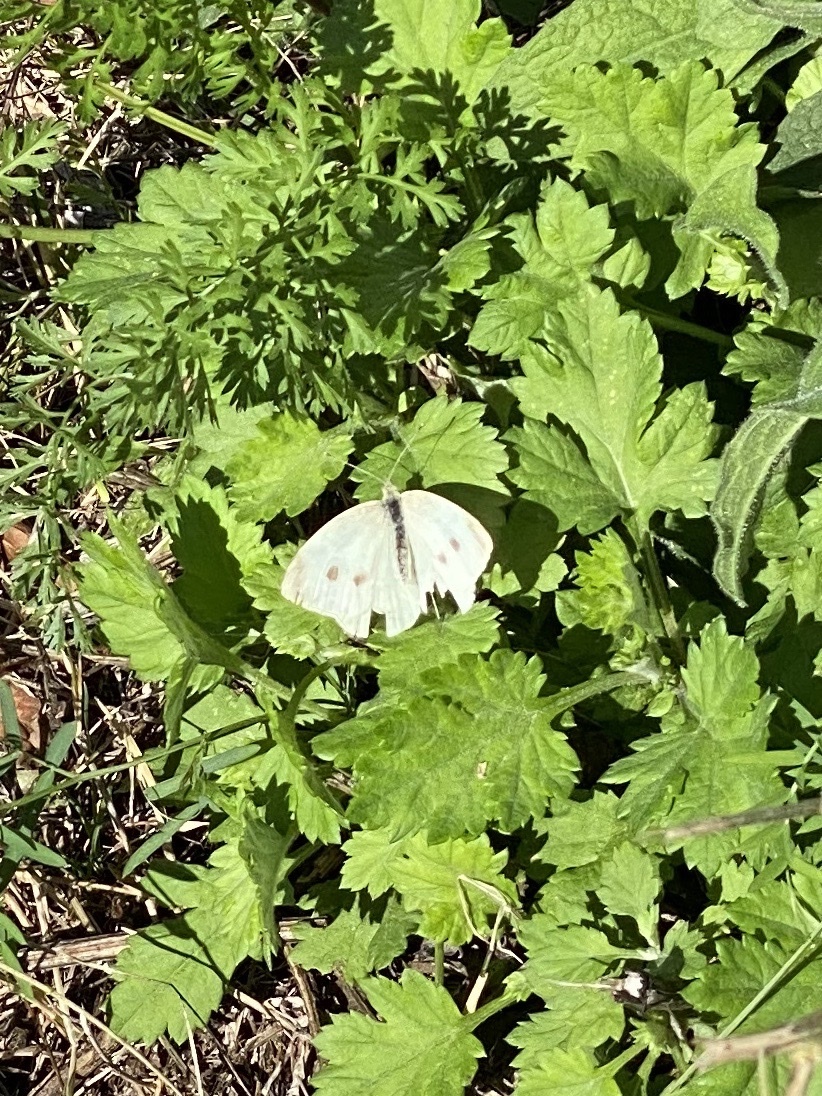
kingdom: Animalia
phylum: Arthropoda
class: Insecta
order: Lepidoptera
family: Pieridae
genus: Pieris
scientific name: Pieris rapae
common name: Small white
